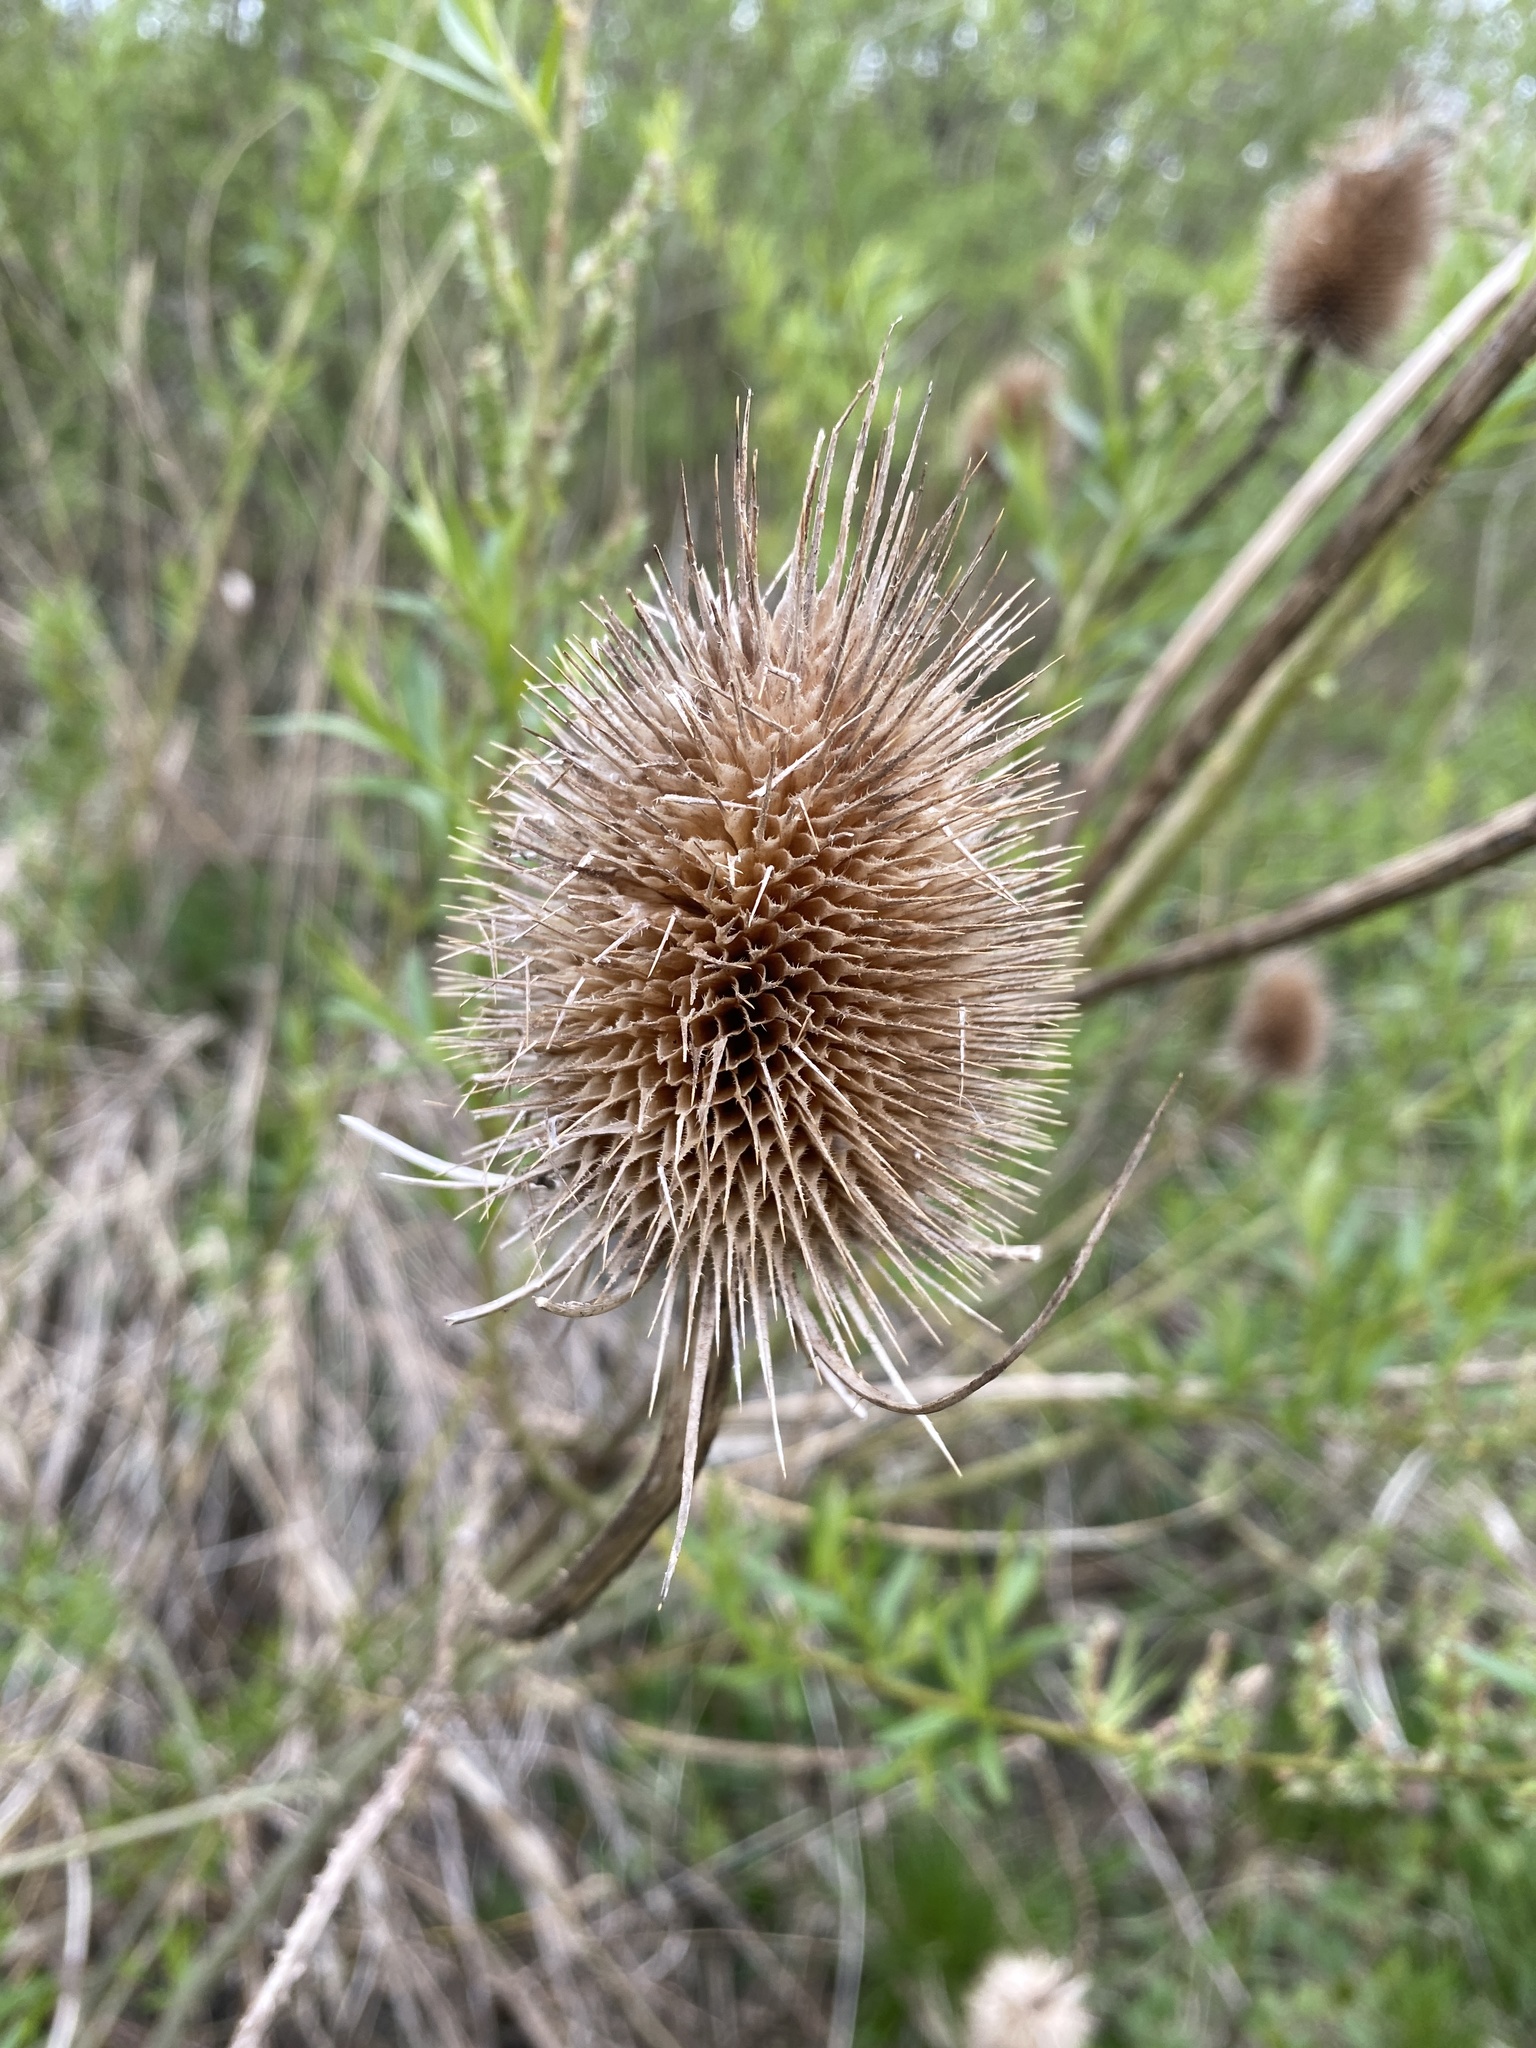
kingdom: Plantae
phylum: Tracheophyta
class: Magnoliopsida
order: Dipsacales
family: Caprifoliaceae
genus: Dipsacus
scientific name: Dipsacus fullonum
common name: Teasel
